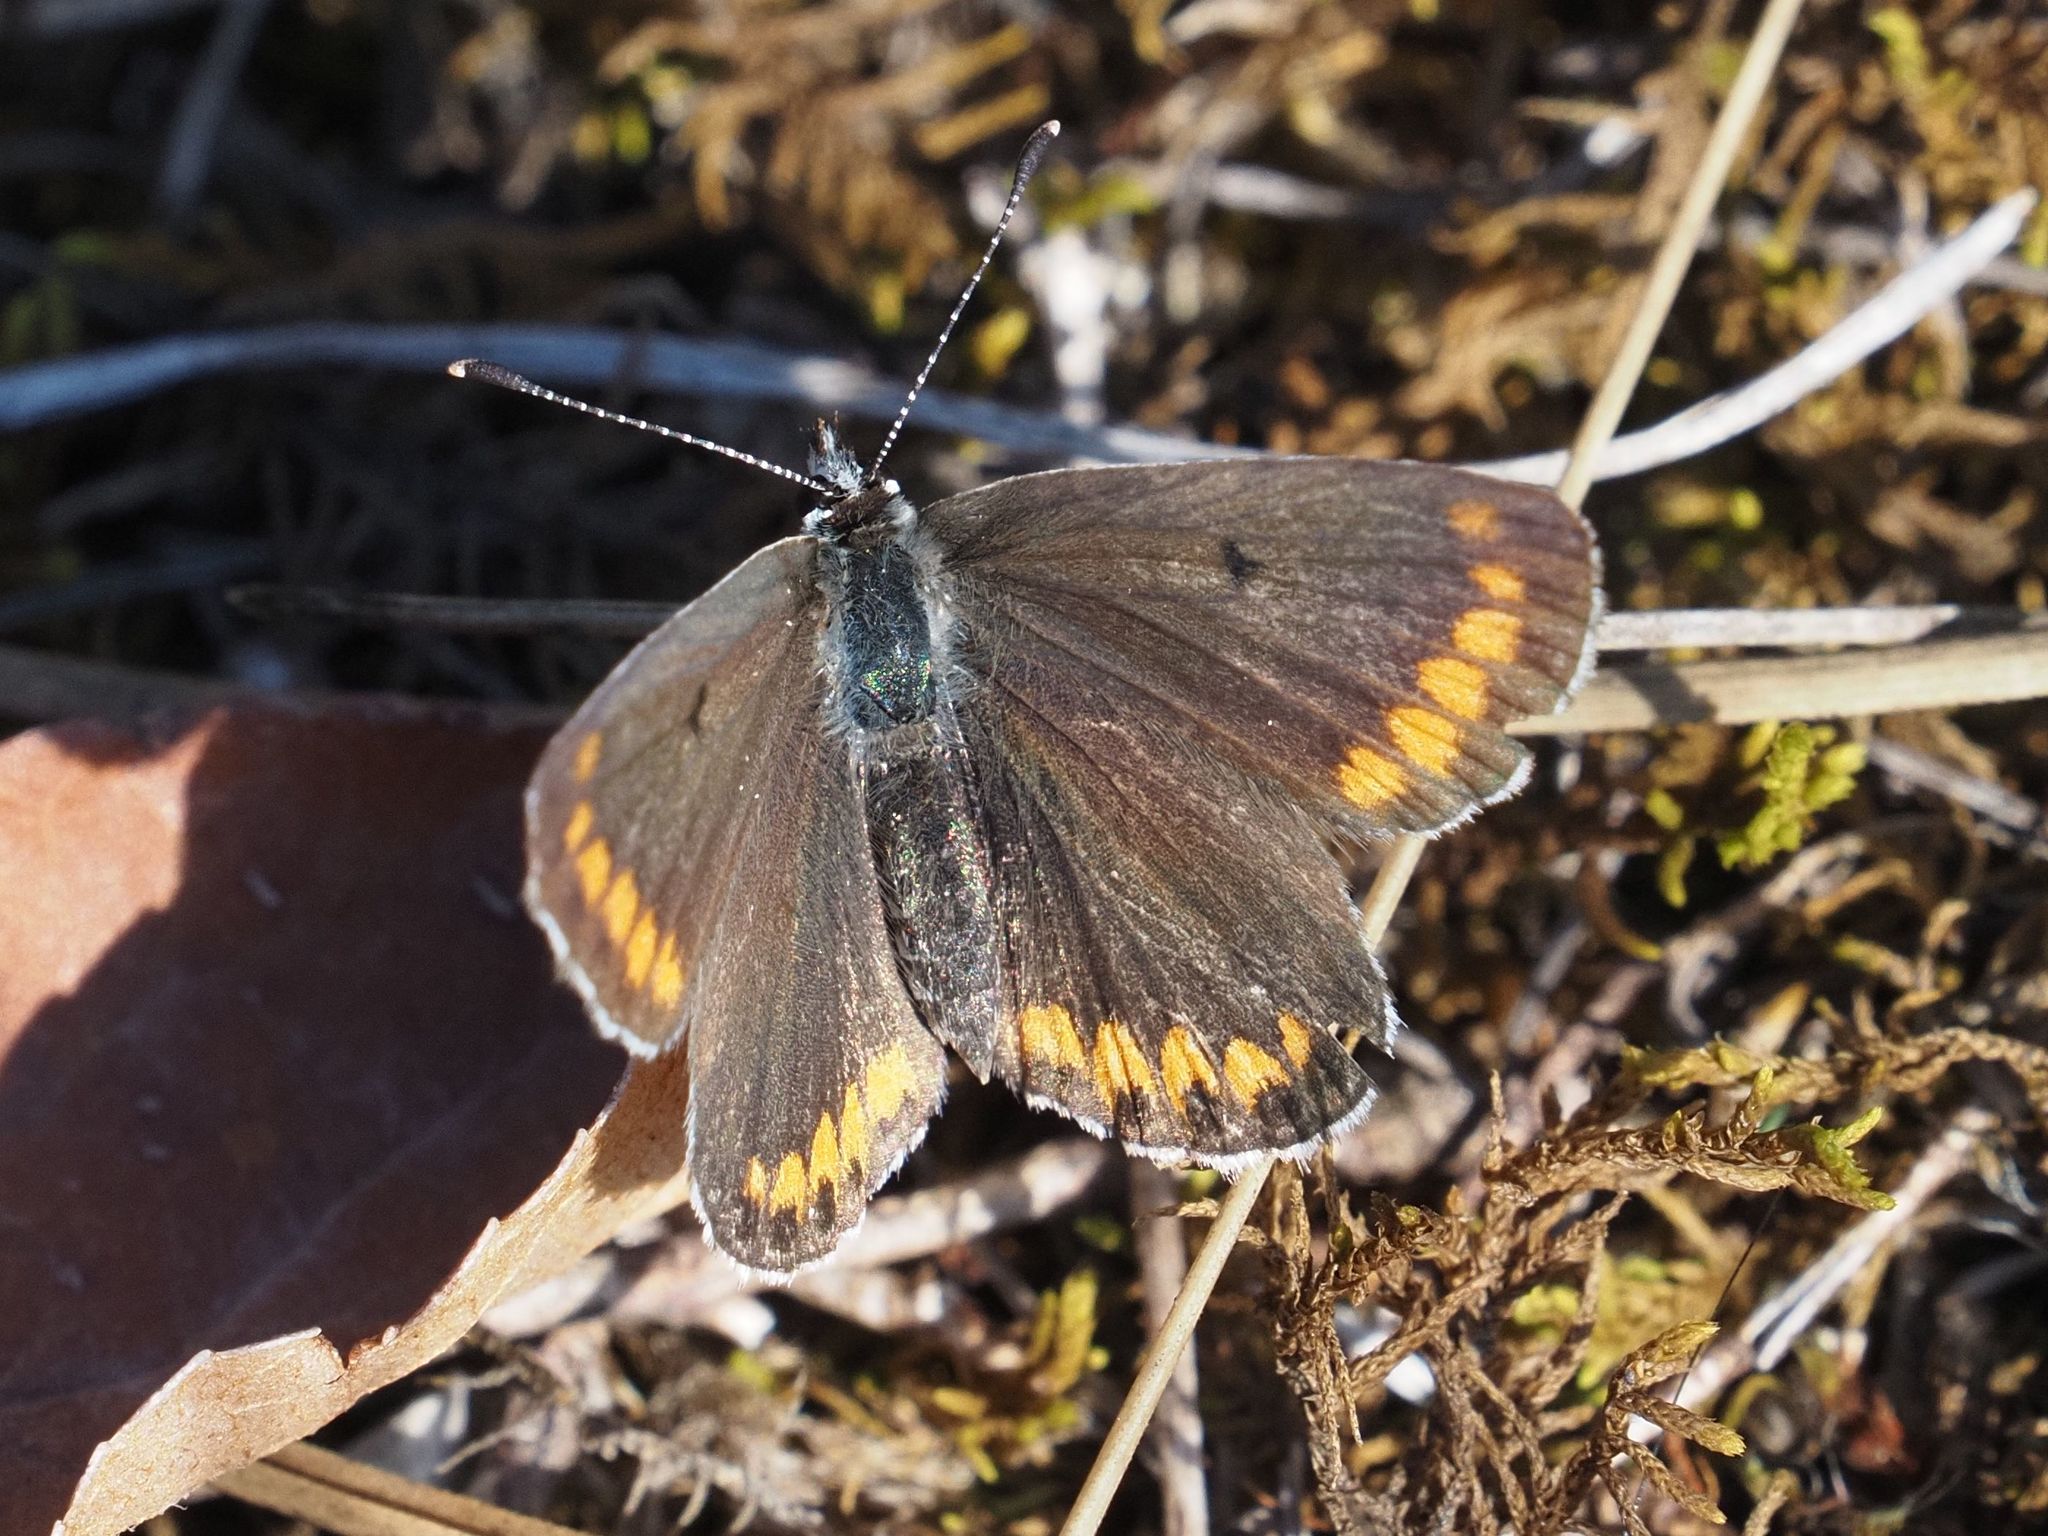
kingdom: Animalia
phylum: Arthropoda
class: Insecta
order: Lepidoptera
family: Lycaenidae
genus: Aricia
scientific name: Aricia agestis
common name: Brown argus
